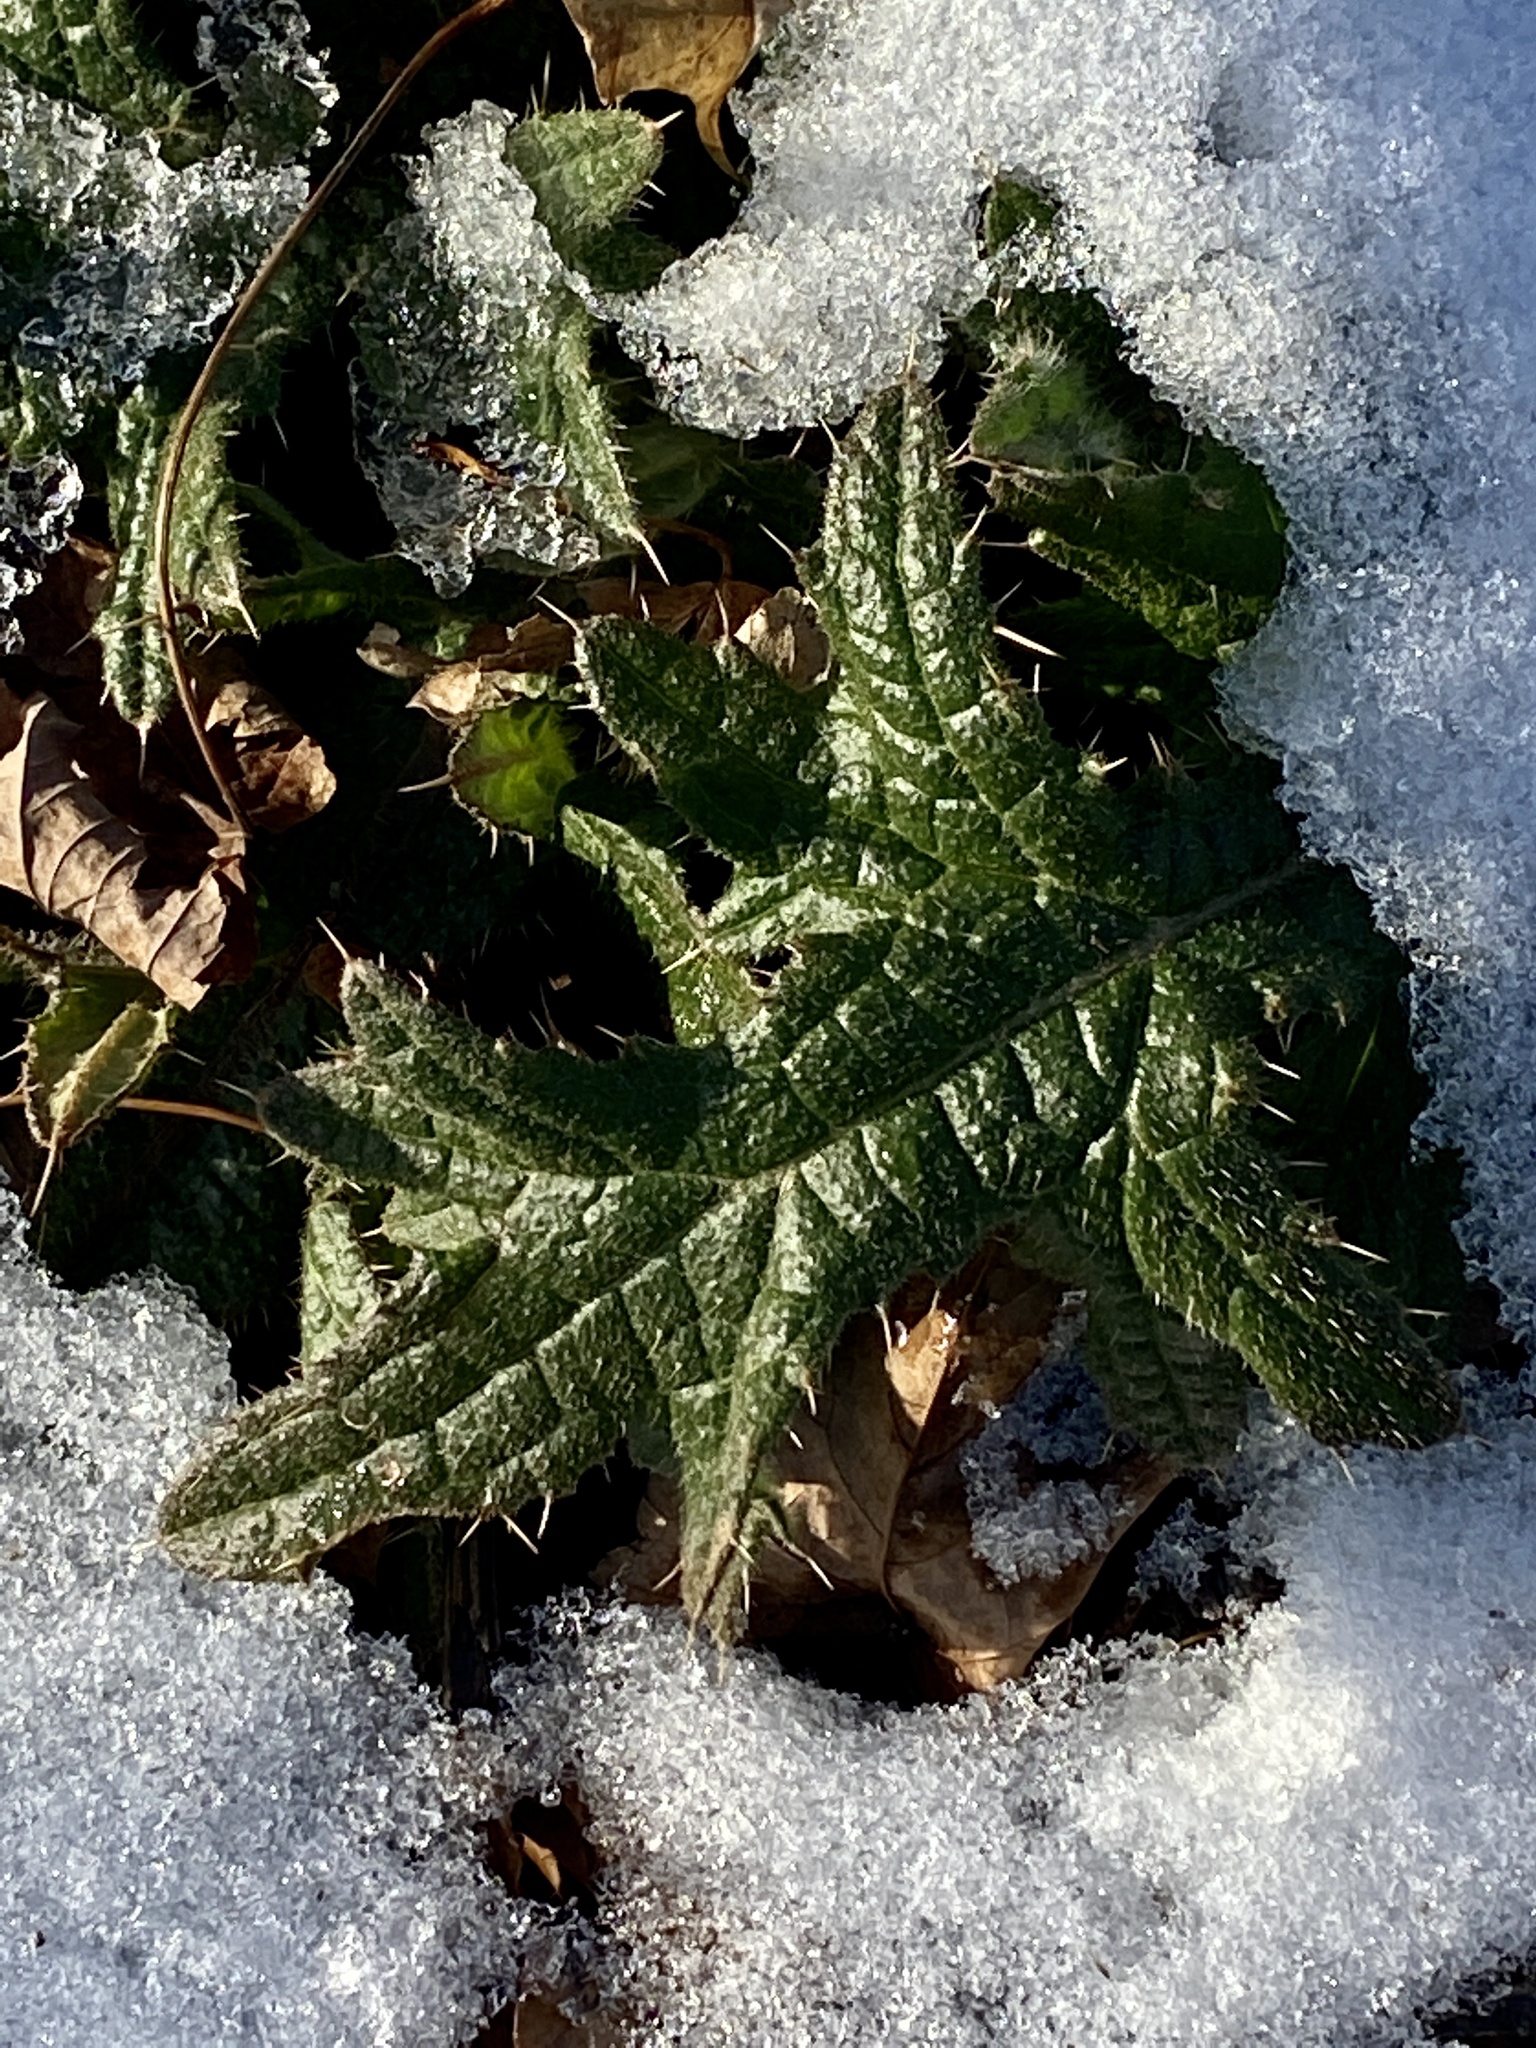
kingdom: Plantae
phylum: Tracheophyta
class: Magnoliopsida
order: Asterales
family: Asteraceae
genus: Cirsium
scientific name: Cirsium vulgare
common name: Bull thistle
